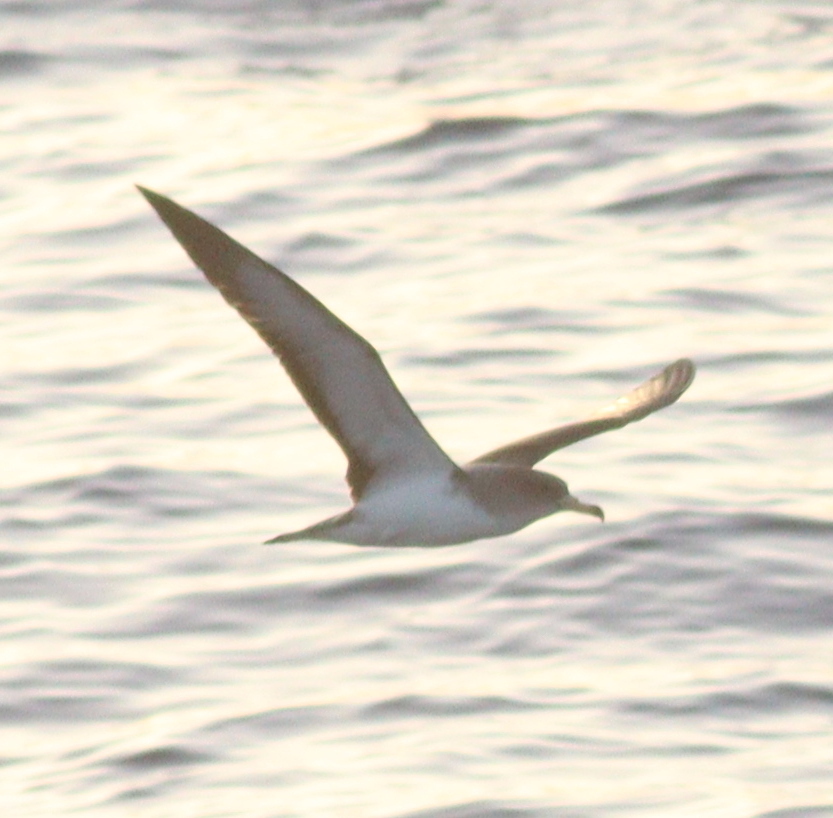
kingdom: Animalia
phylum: Chordata
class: Aves
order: Procellariiformes
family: Procellariidae
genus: Calonectris
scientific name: Calonectris diomedea
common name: Cory's shearwater
